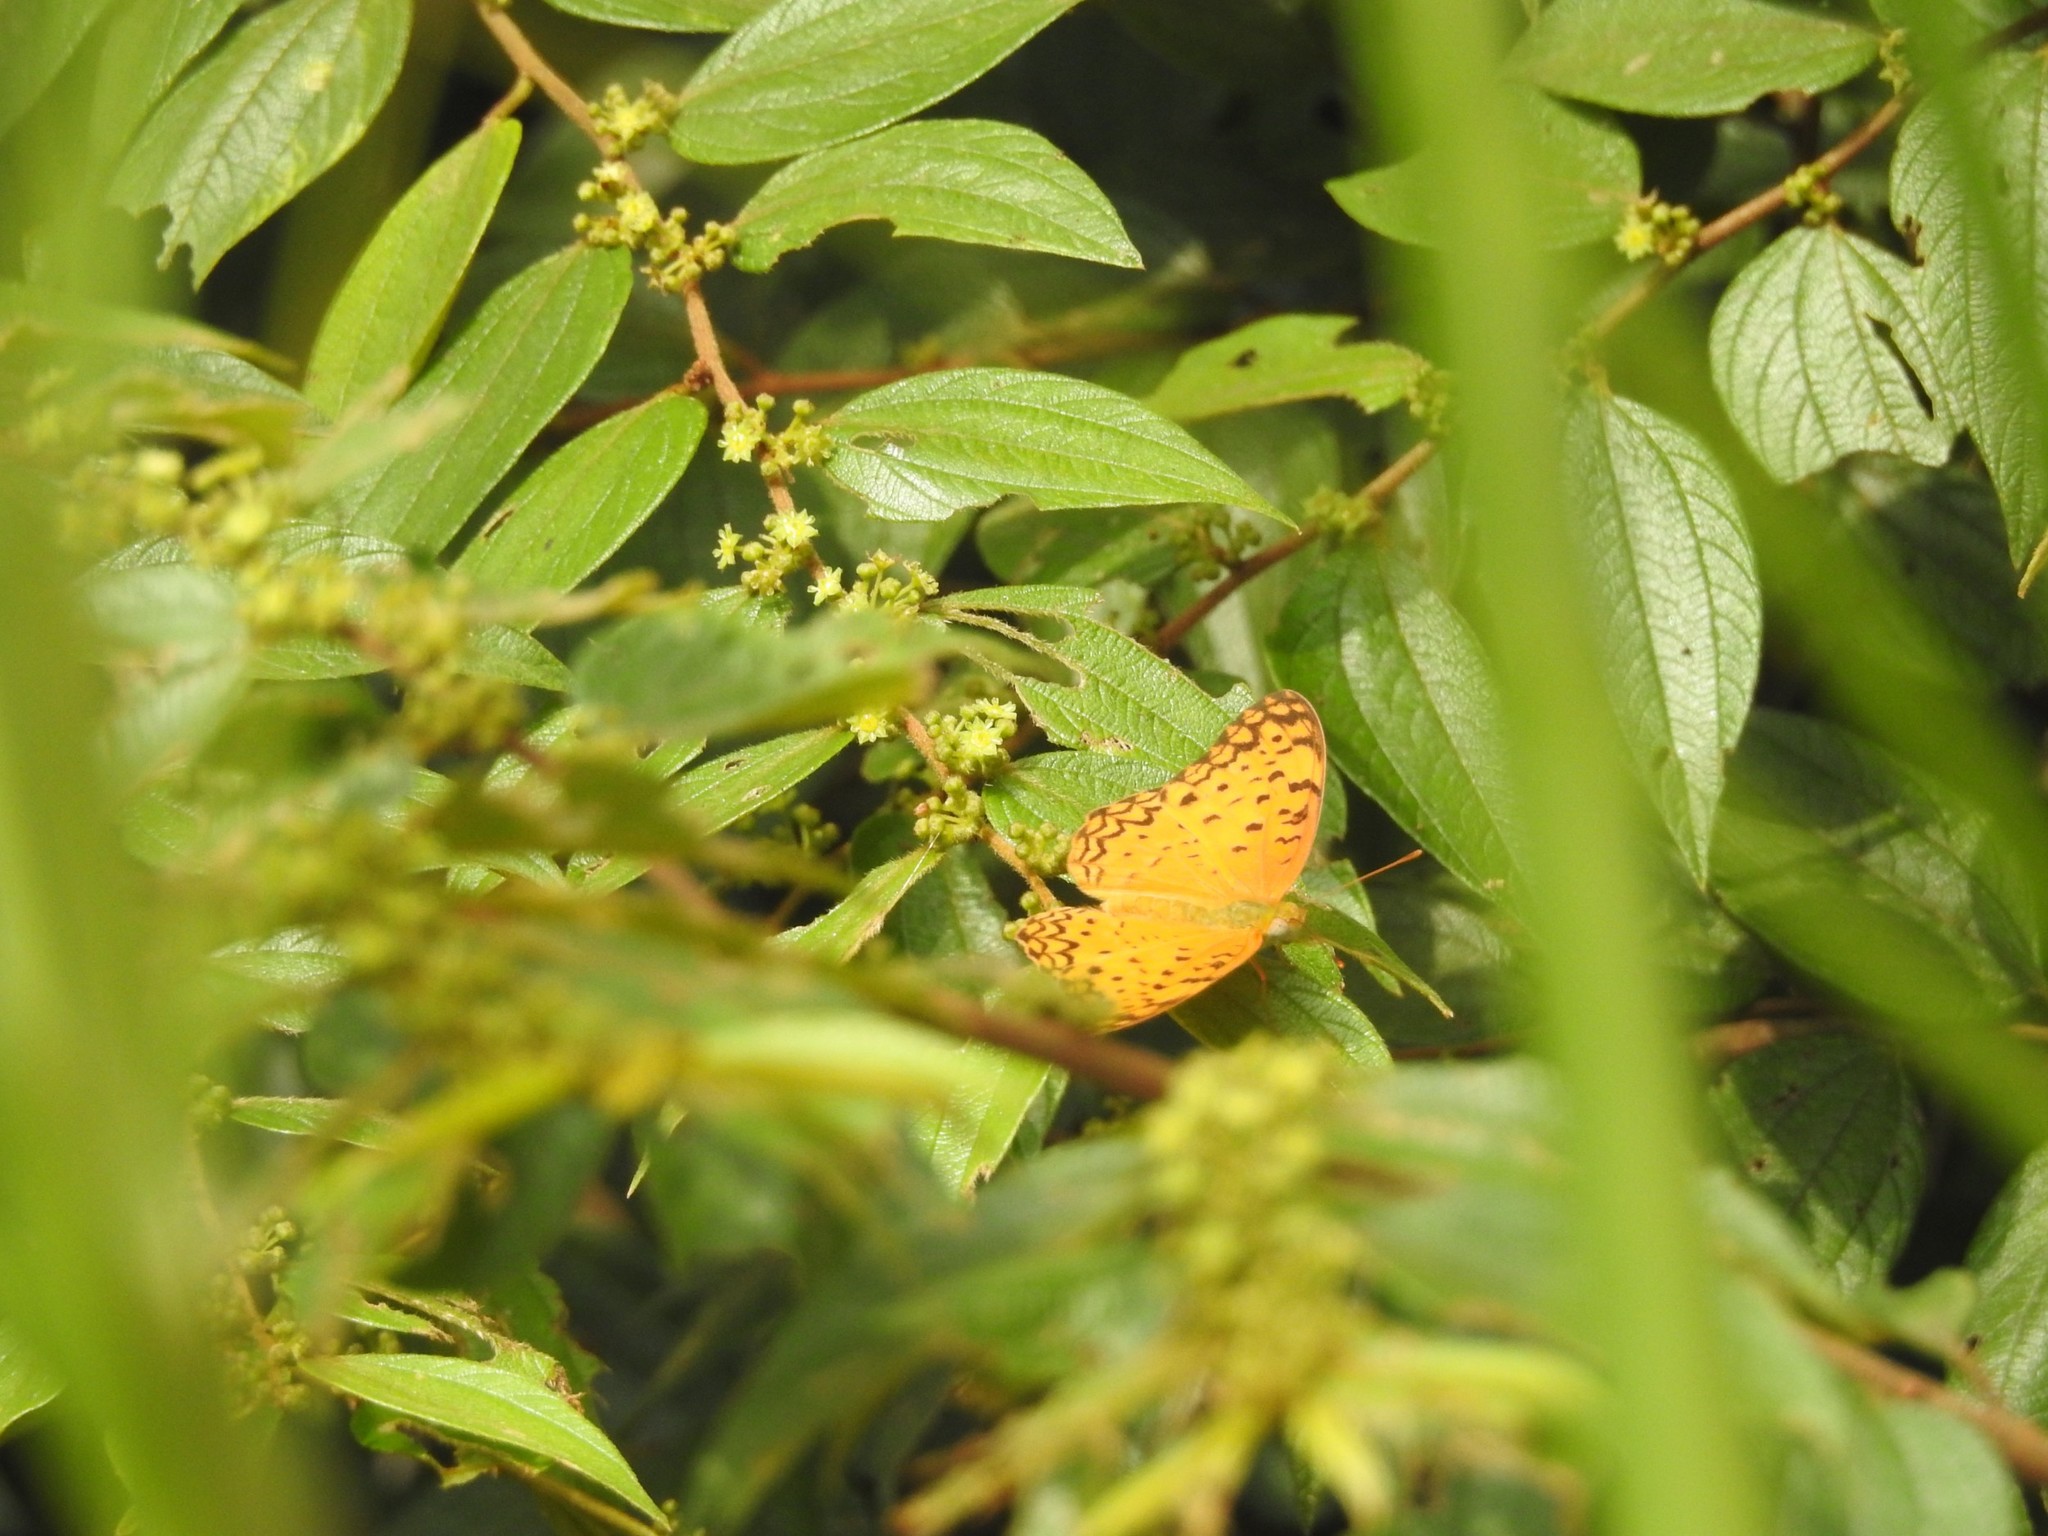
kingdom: Animalia
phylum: Arthropoda
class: Insecta
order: Lepidoptera
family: Nymphalidae
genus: Phalanta
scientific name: Phalanta phalantha
